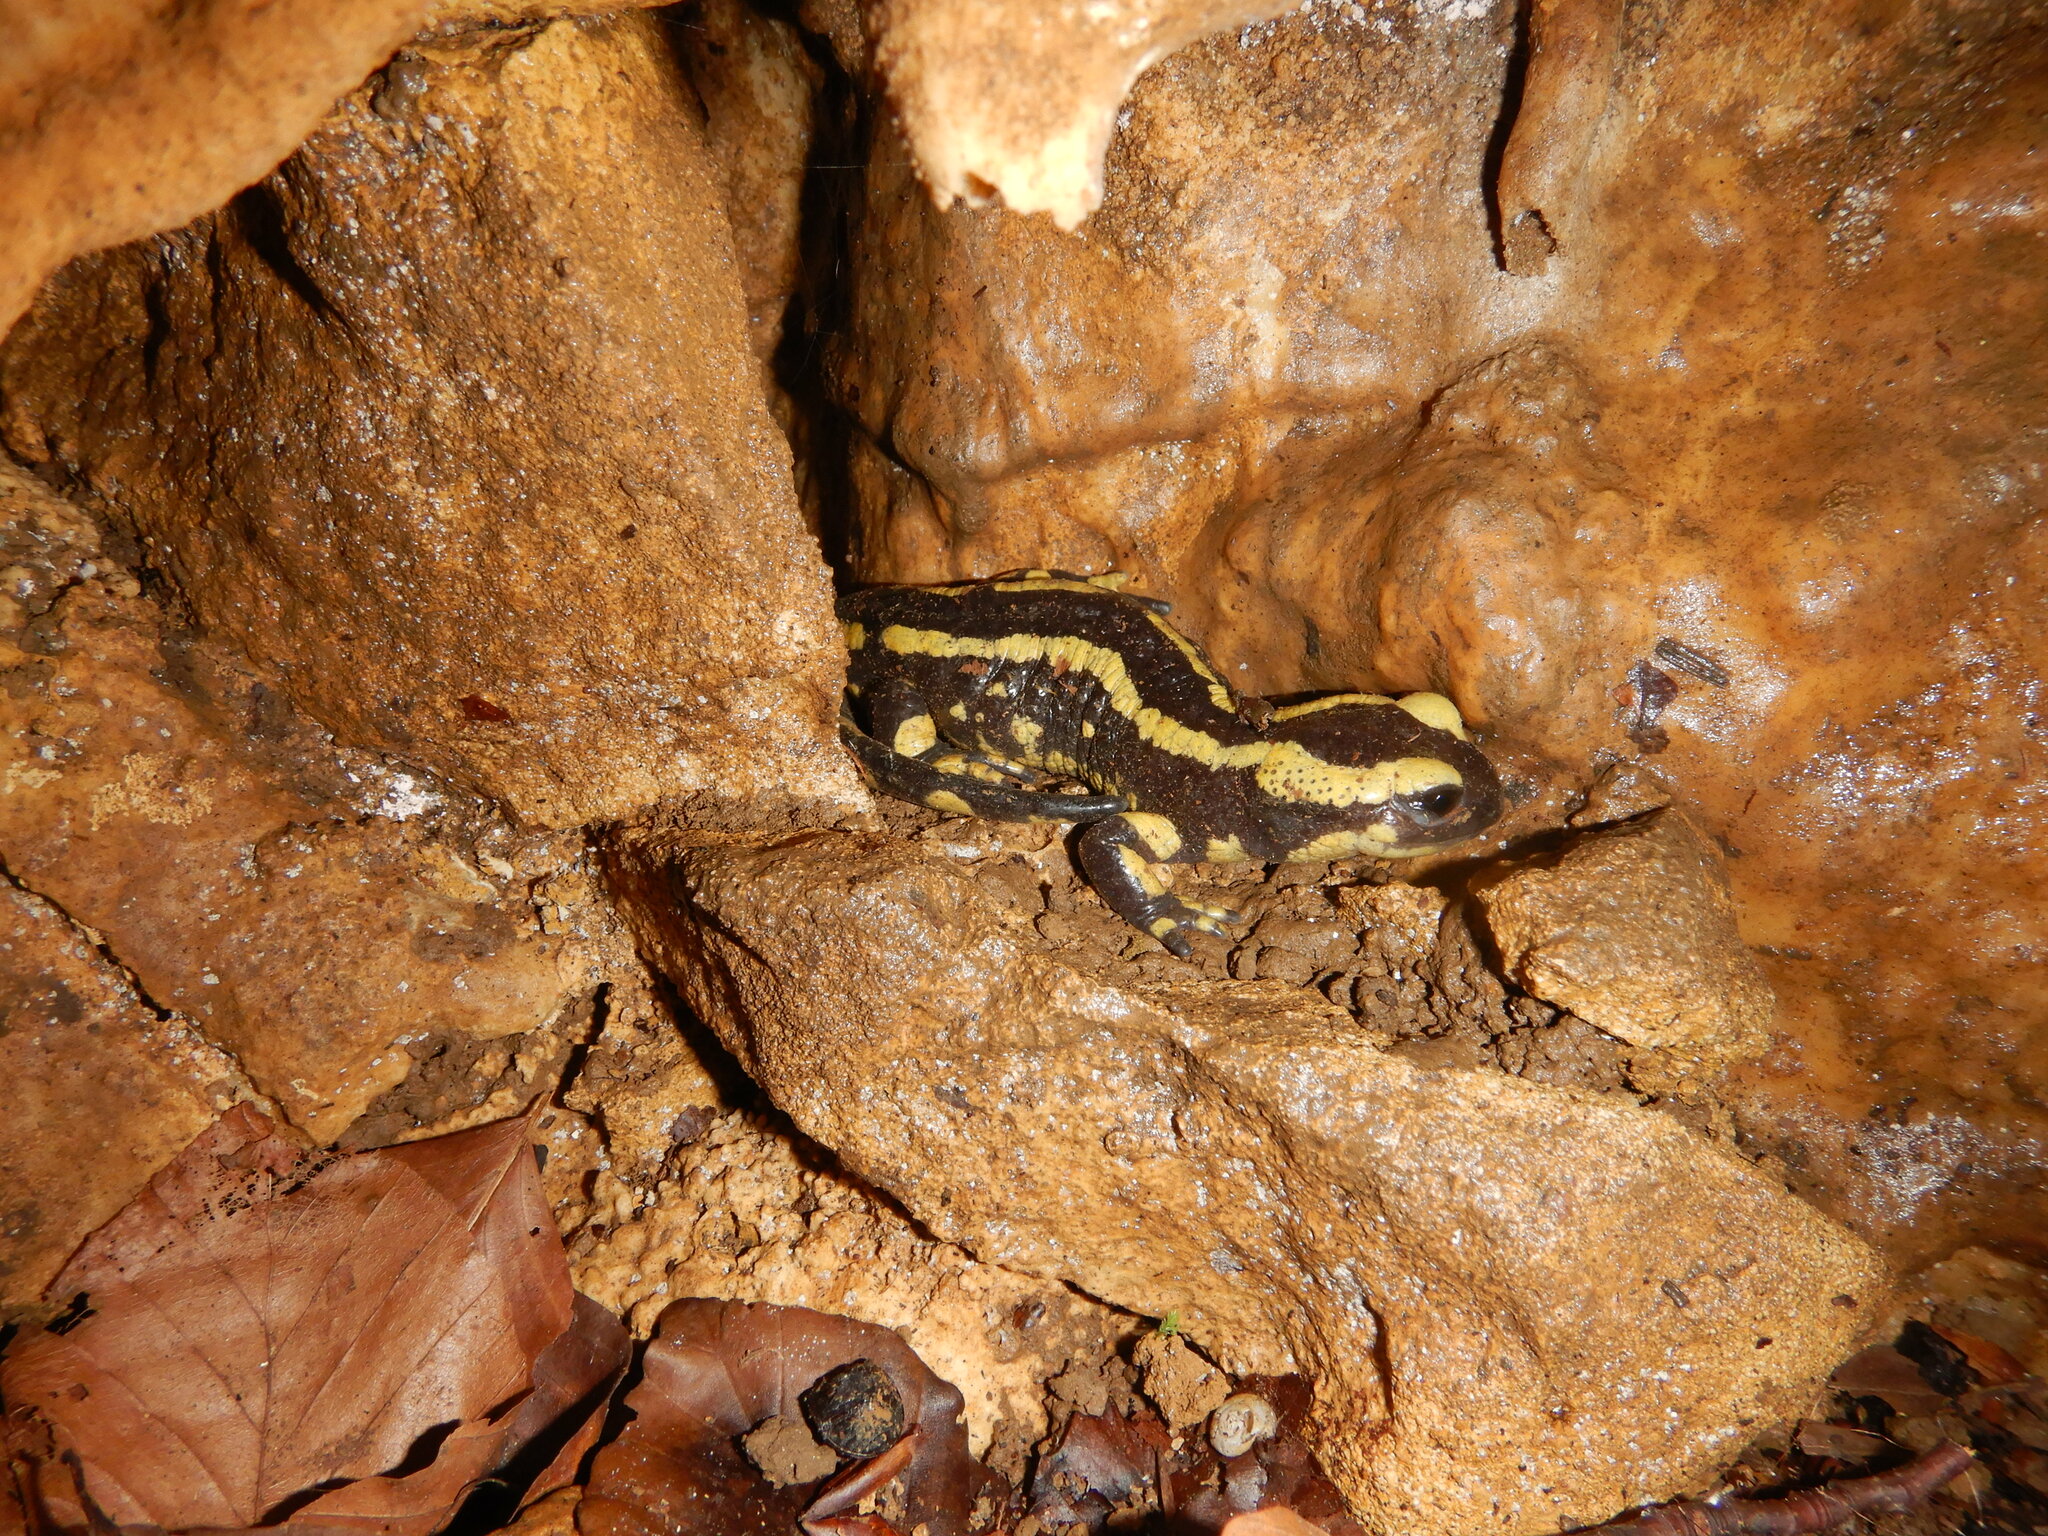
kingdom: Animalia
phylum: Chordata
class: Amphibia
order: Caudata
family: Salamandridae
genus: Salamandra
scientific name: Salamandra salamandra
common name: Fire salamander
